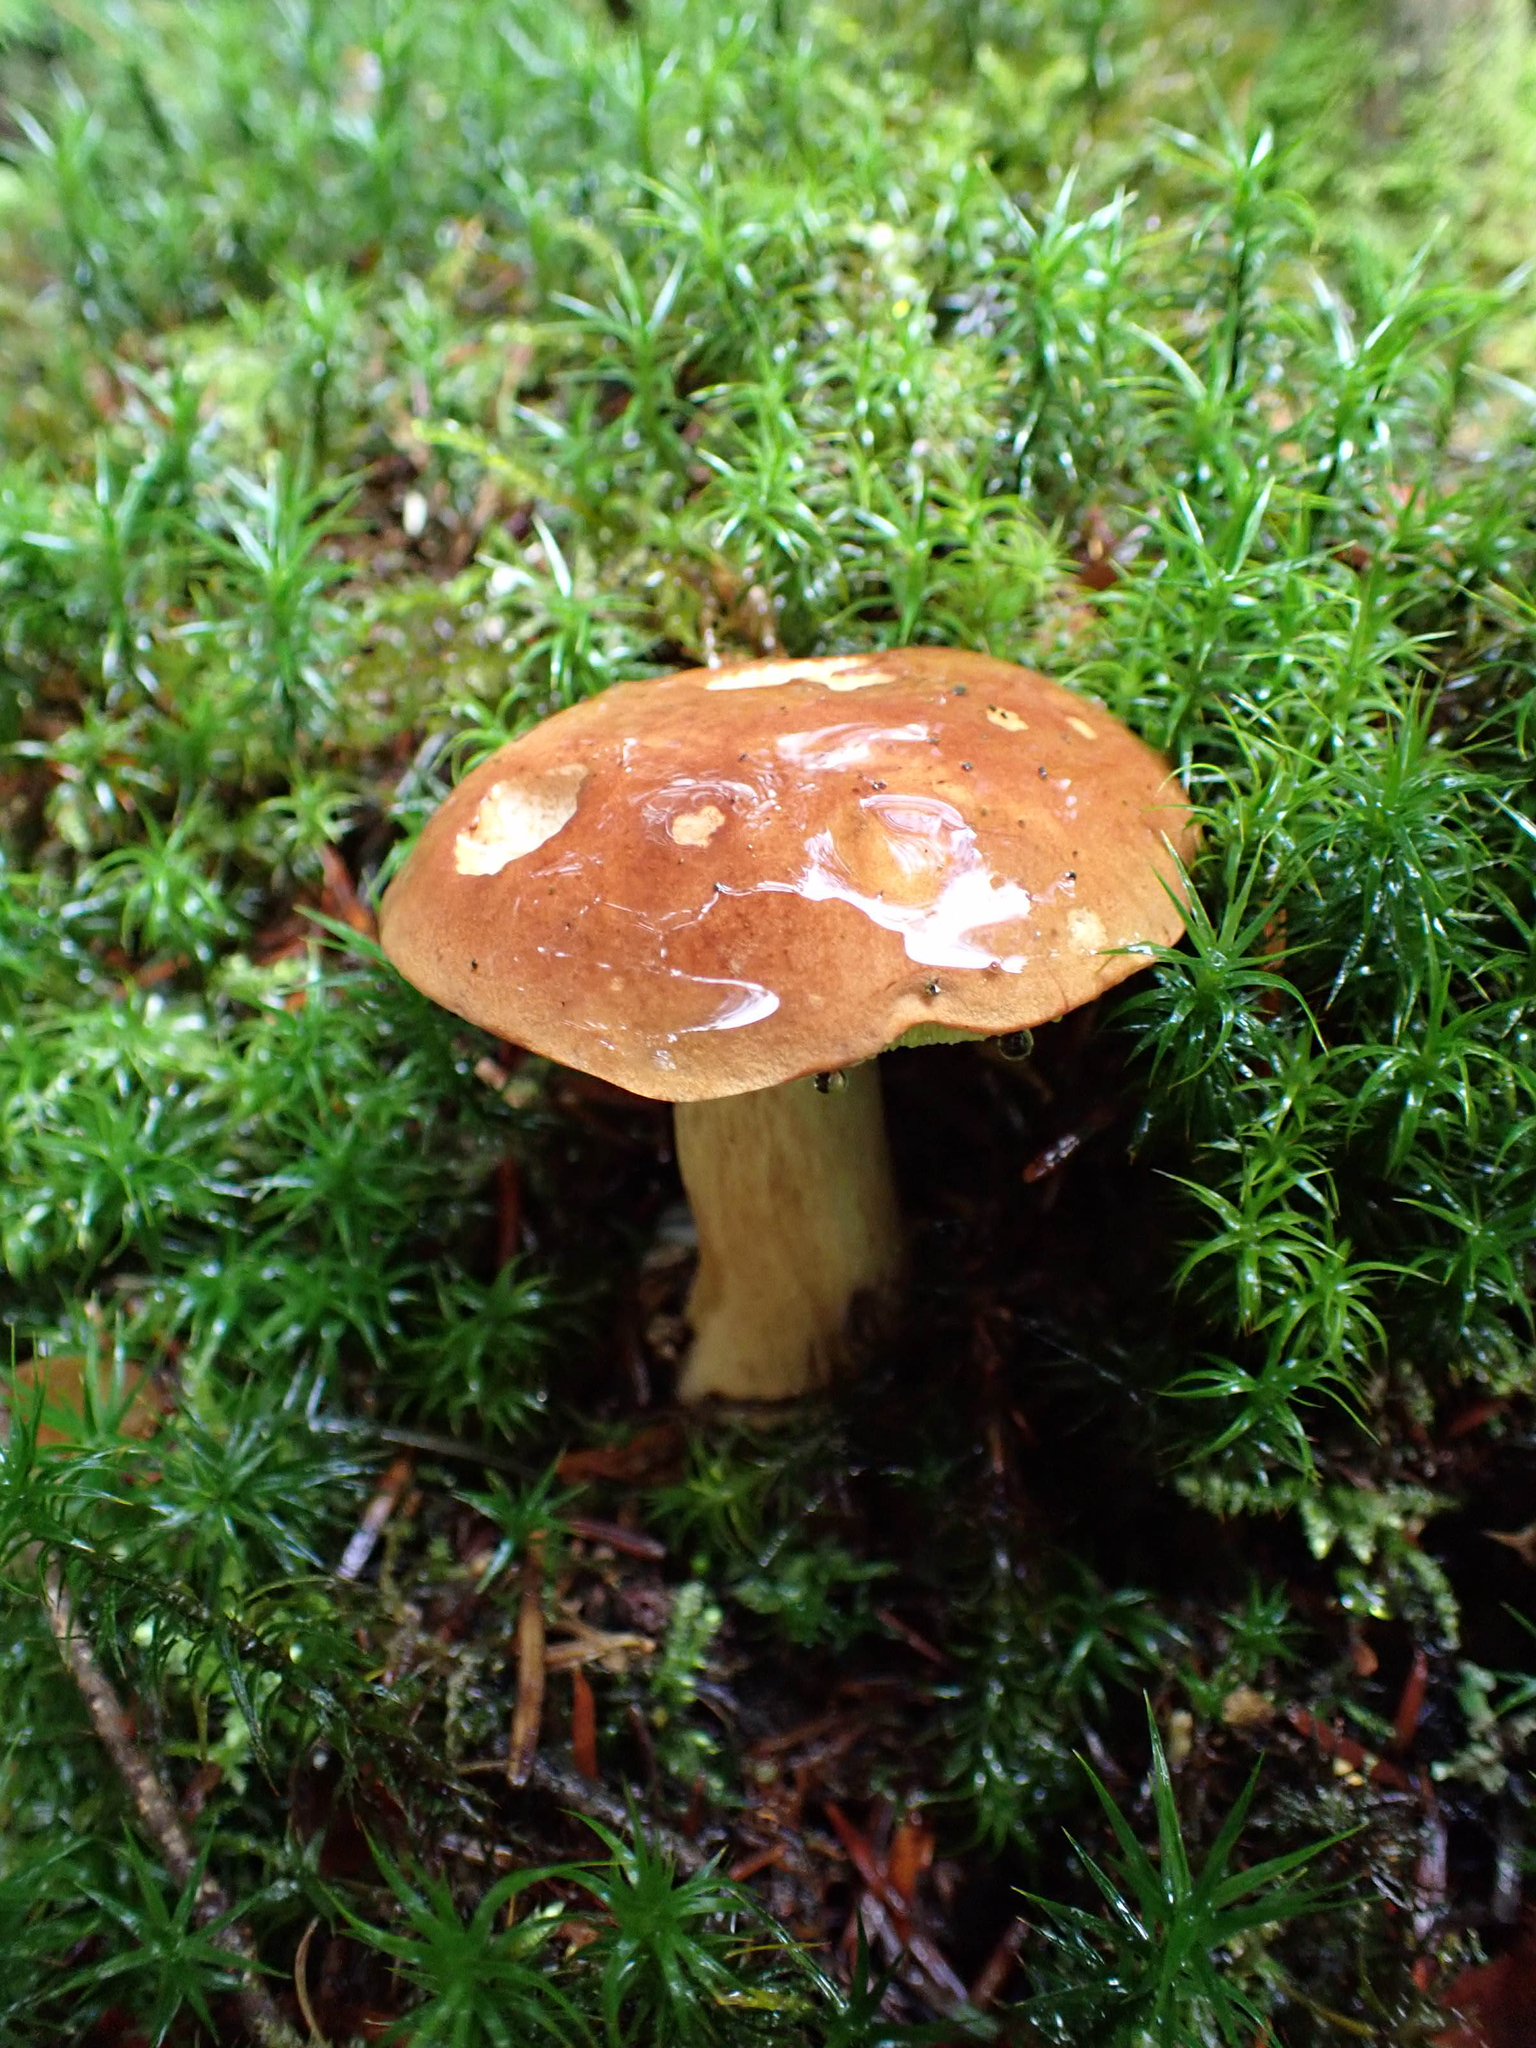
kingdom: Fungi
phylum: Basidiomycota
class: Agaricomycetes
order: Boletales
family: Boletaceae
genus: Imleria
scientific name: Imleria badia
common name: Bay bolete
